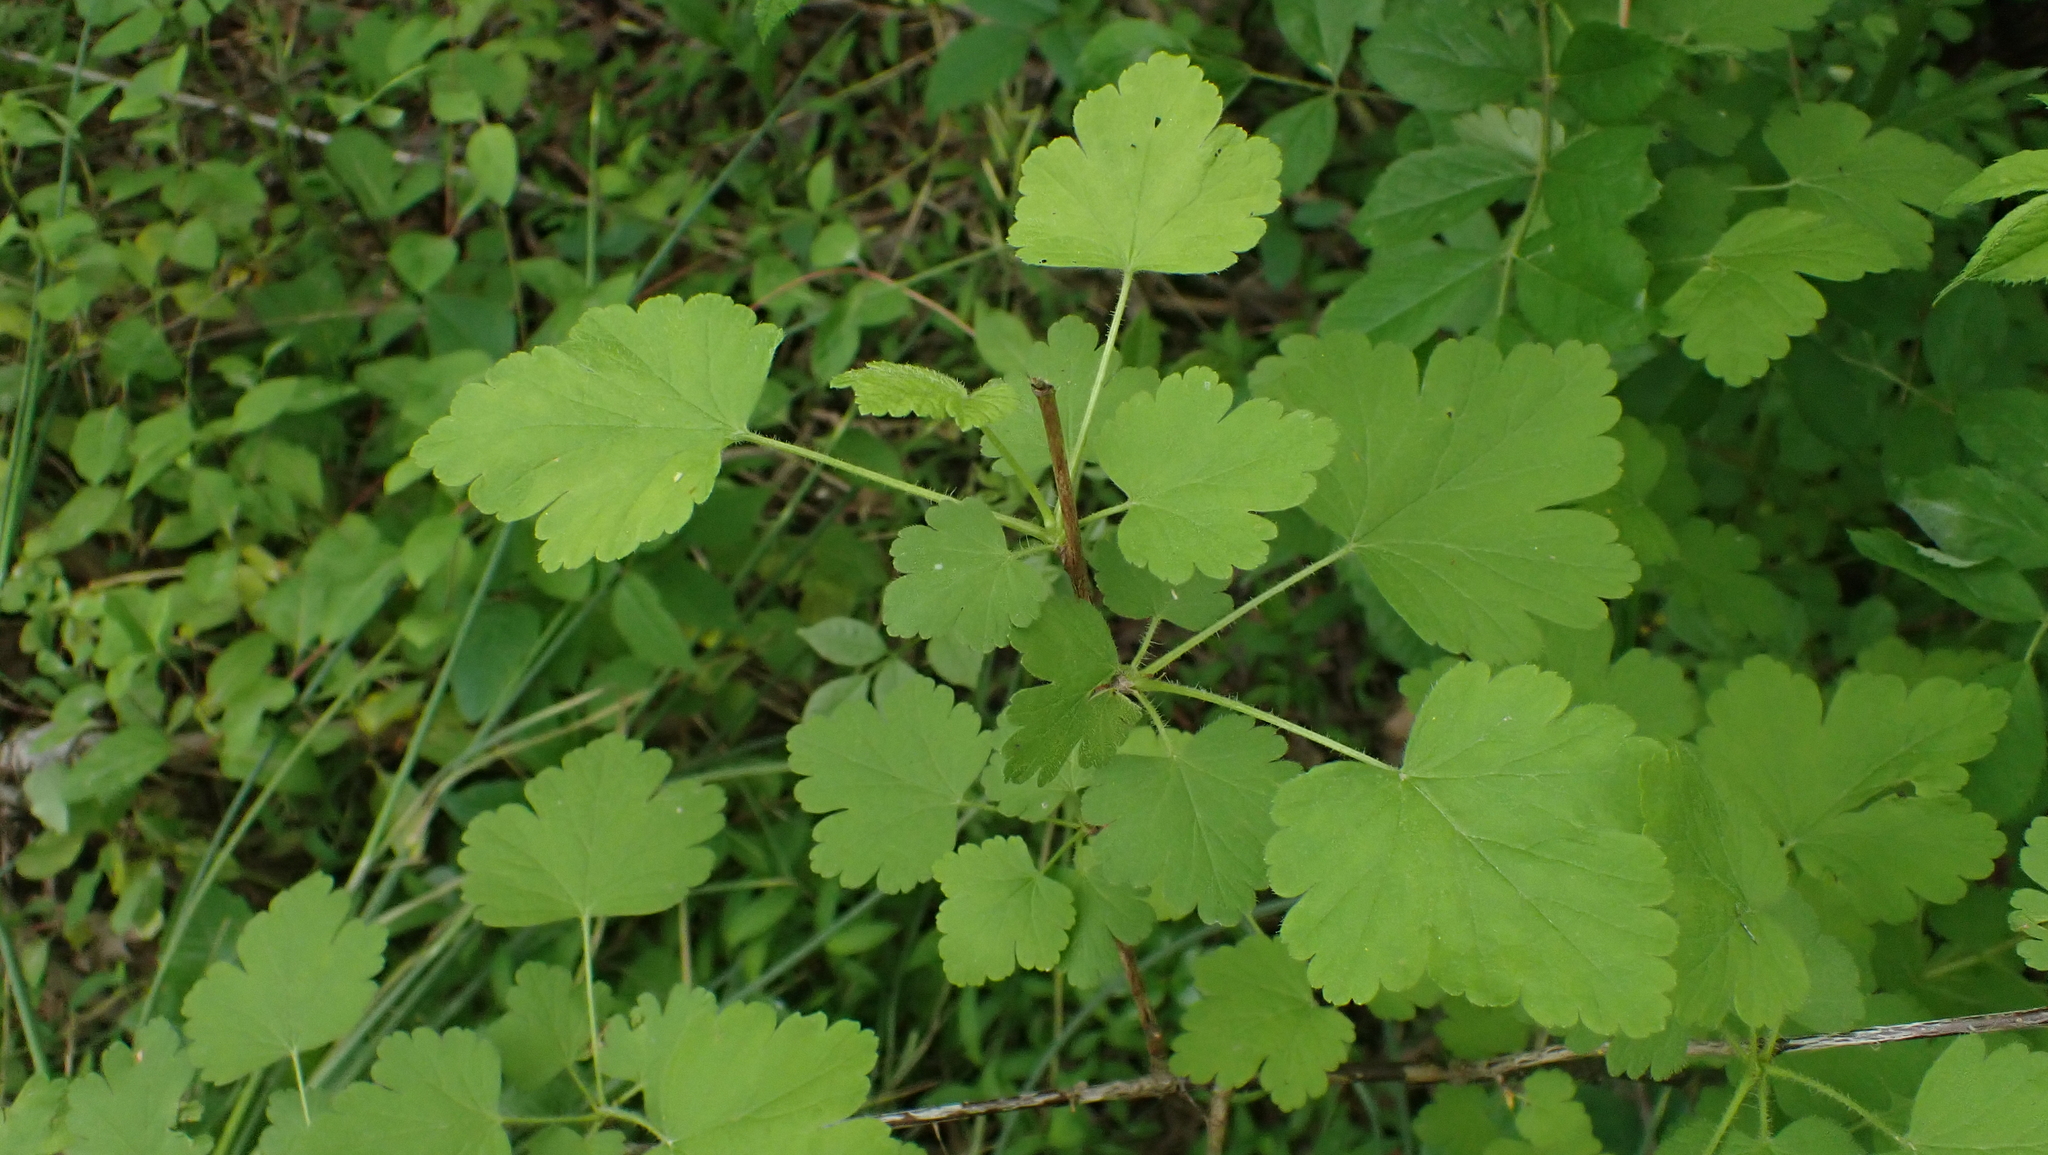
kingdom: Plantae
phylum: Tracheophyta
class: Magnoliopsida
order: Saxifragales
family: Grossulariaceae
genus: Ribes
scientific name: Ribes cynosbati
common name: American gooseberry
